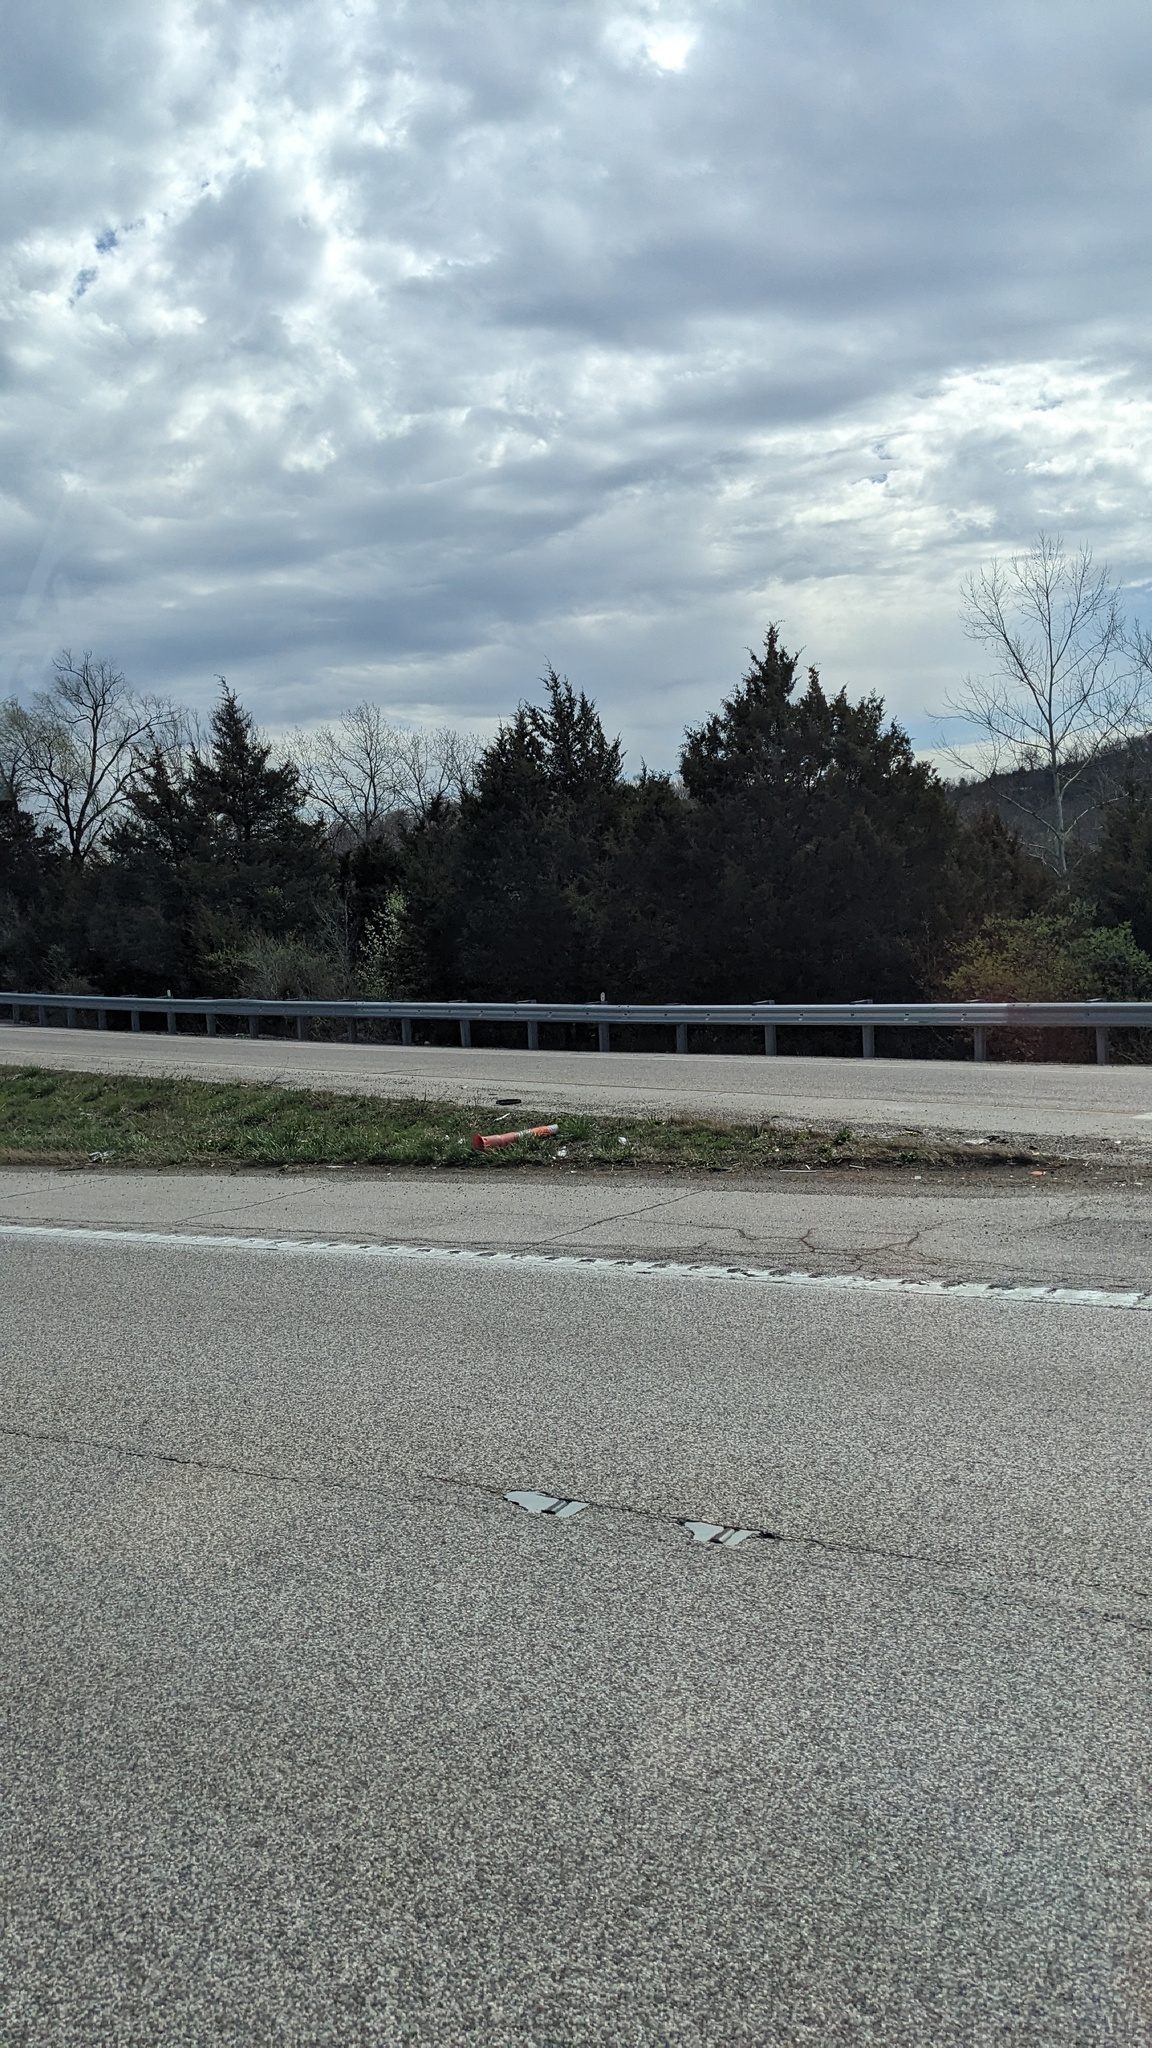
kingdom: Plantae
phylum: Tracheophyta
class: Pinopsida
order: Pinales
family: Cupressaceae
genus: Juniperus
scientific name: Juniperus virginiana
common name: Red juniper
